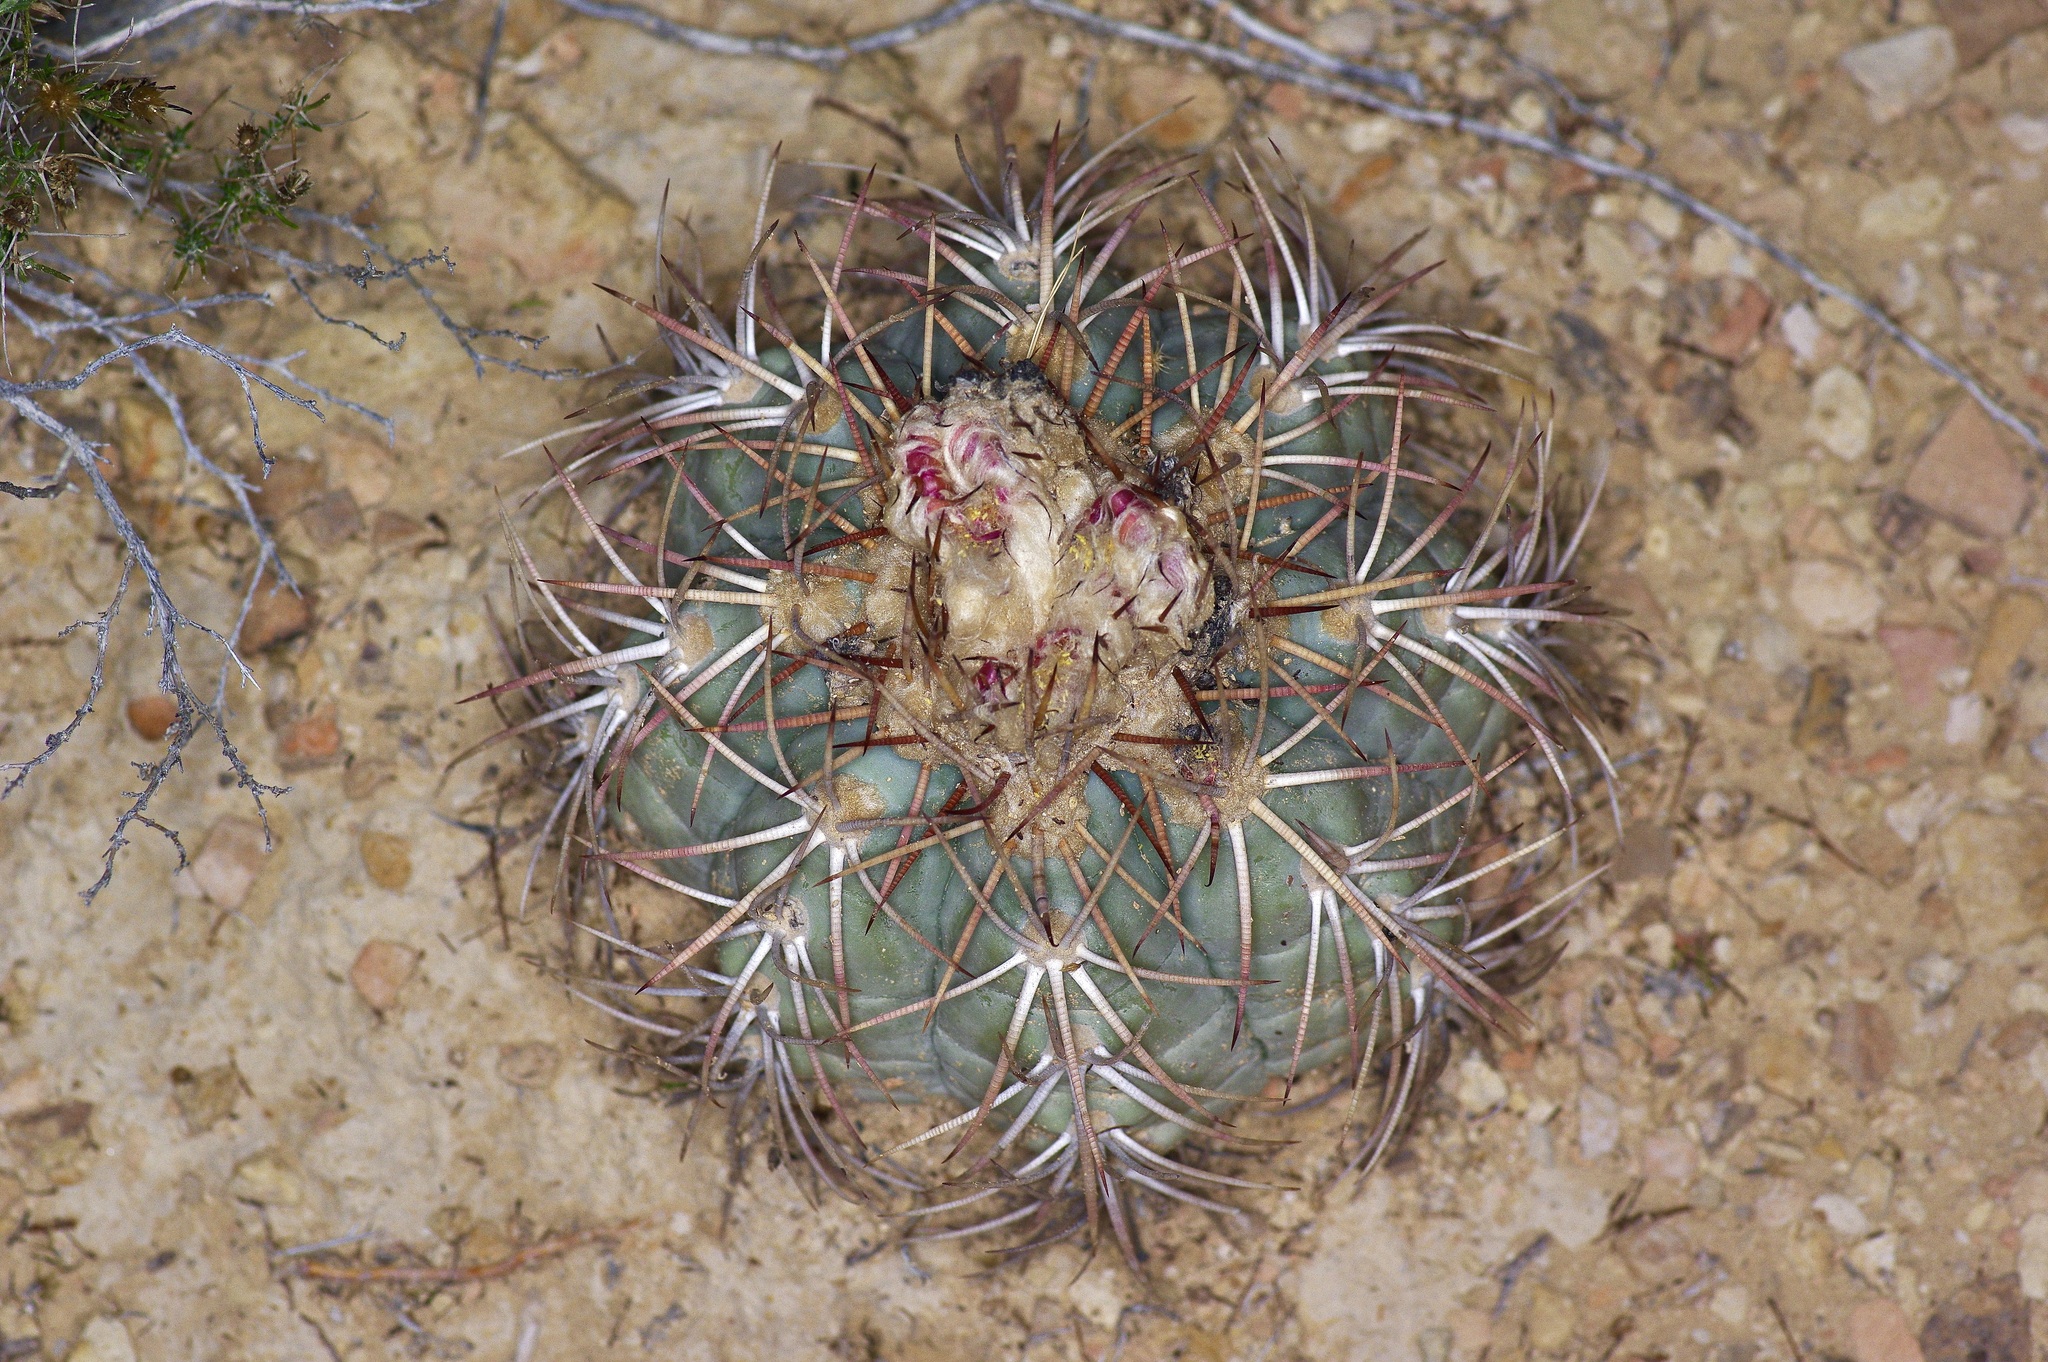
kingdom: Plantae
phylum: Tracheophyta
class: Magnoliopsida
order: Caryophyllales
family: Cactaceae
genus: Echinocactus
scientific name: Echinocactus horizonthalonius
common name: Devilshead
